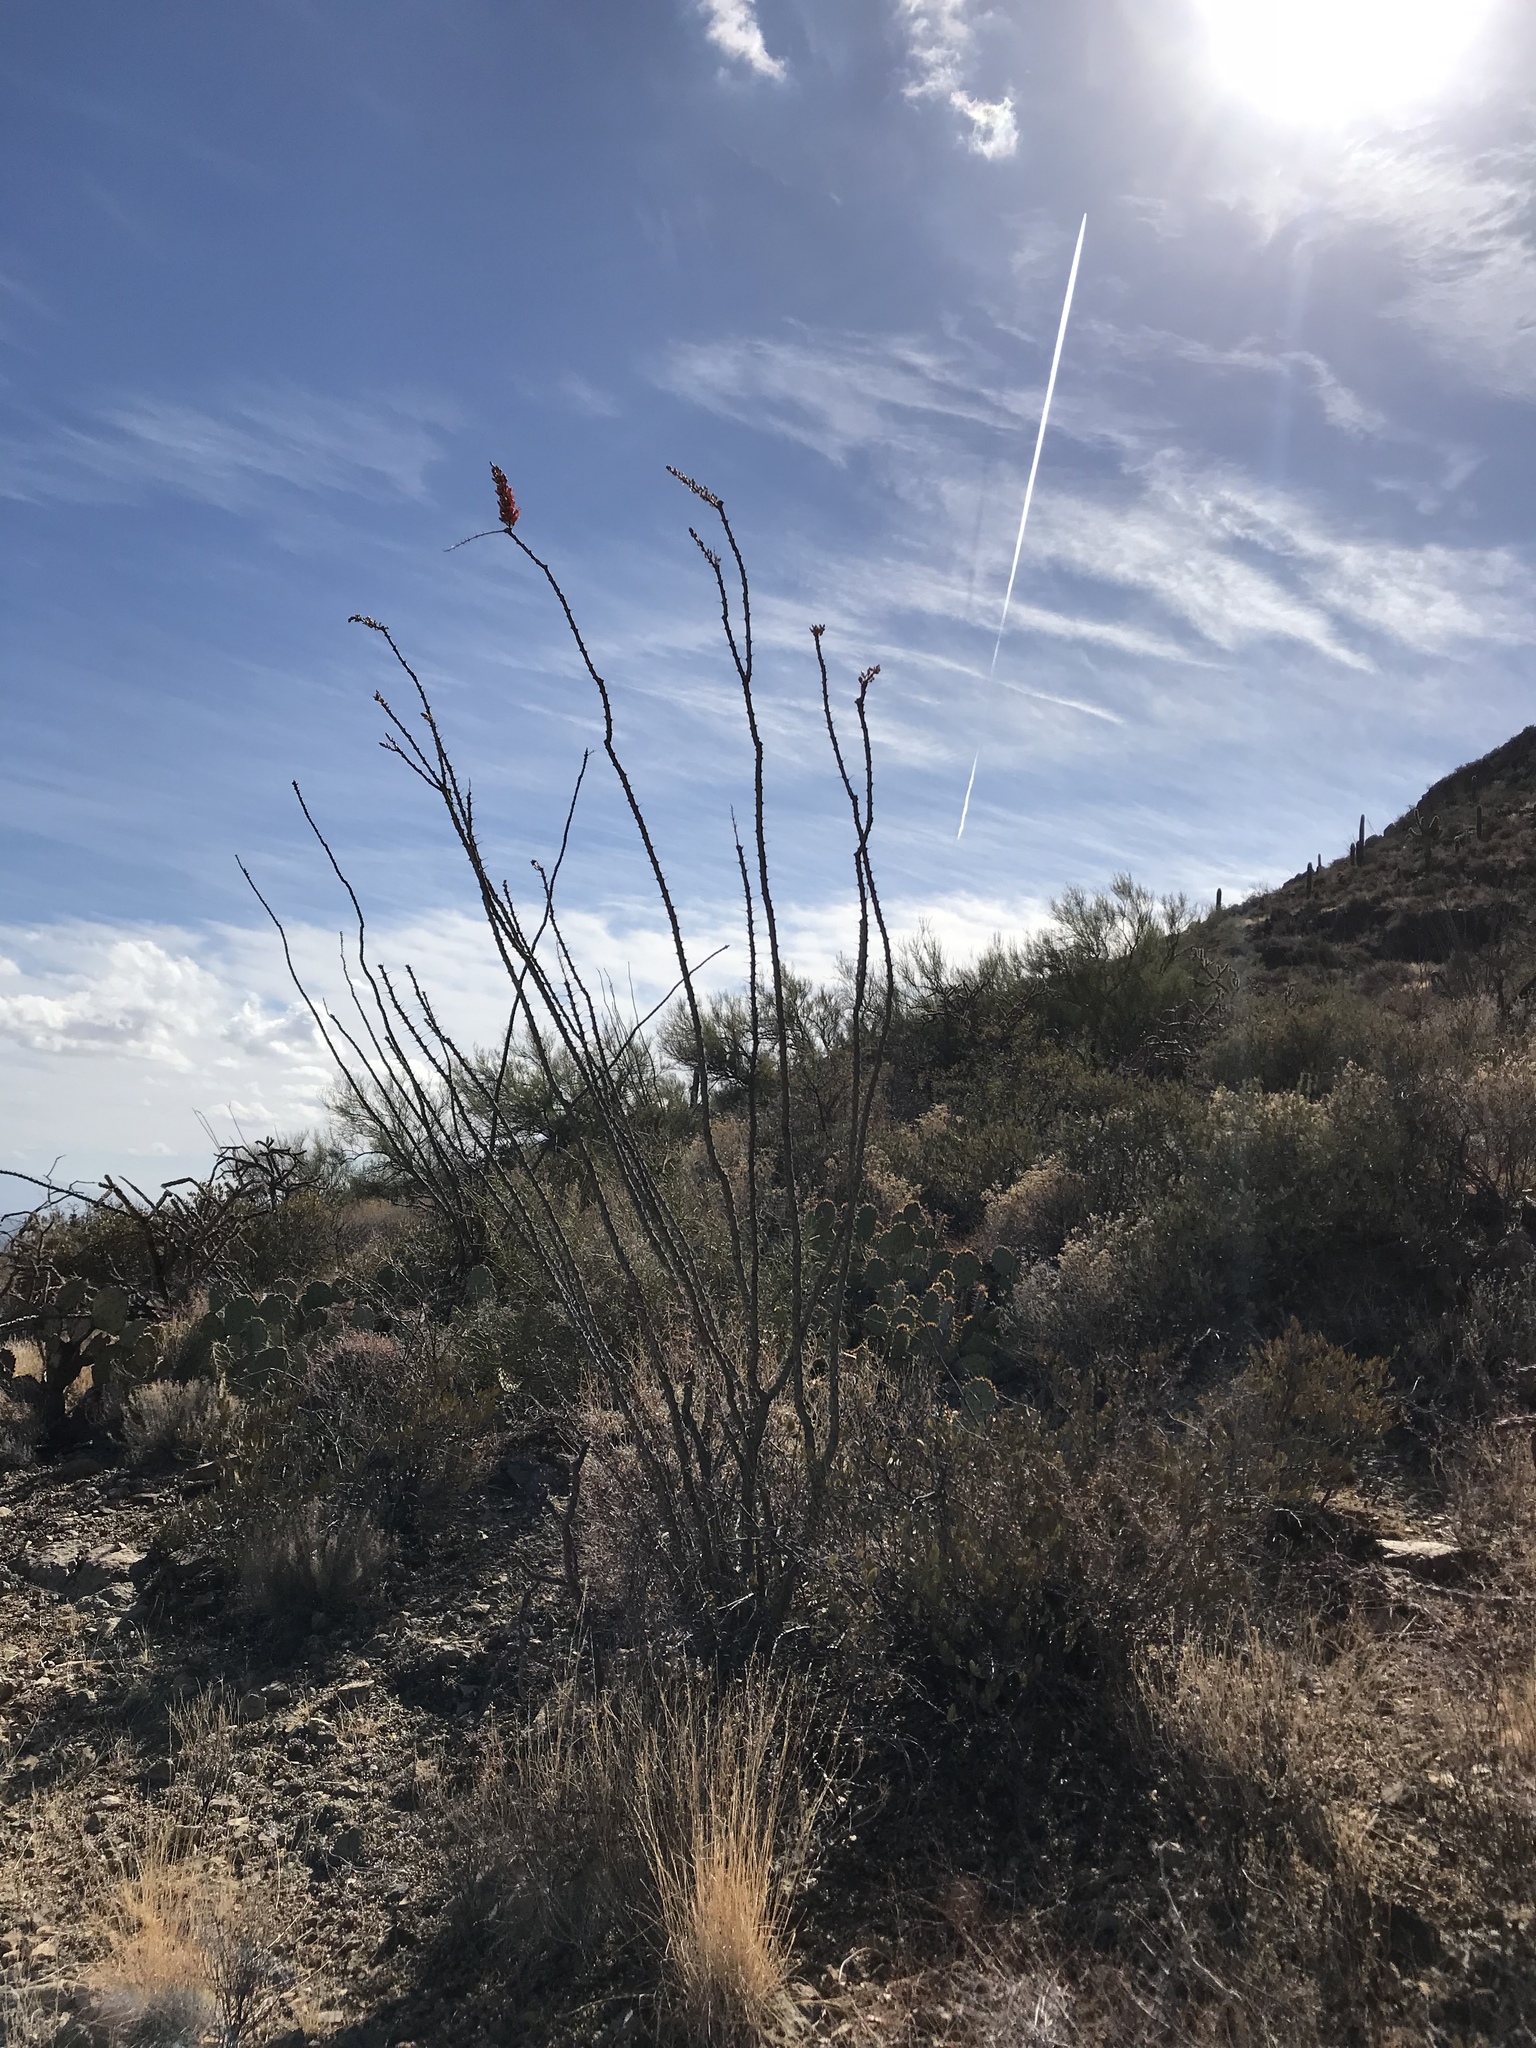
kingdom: Plantae
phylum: Tracheophyta
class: Magnoliopsida
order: Ericales
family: Fouquieriaceae
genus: Fouquieria
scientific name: Fouquieria splendens
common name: Vine-cactus
